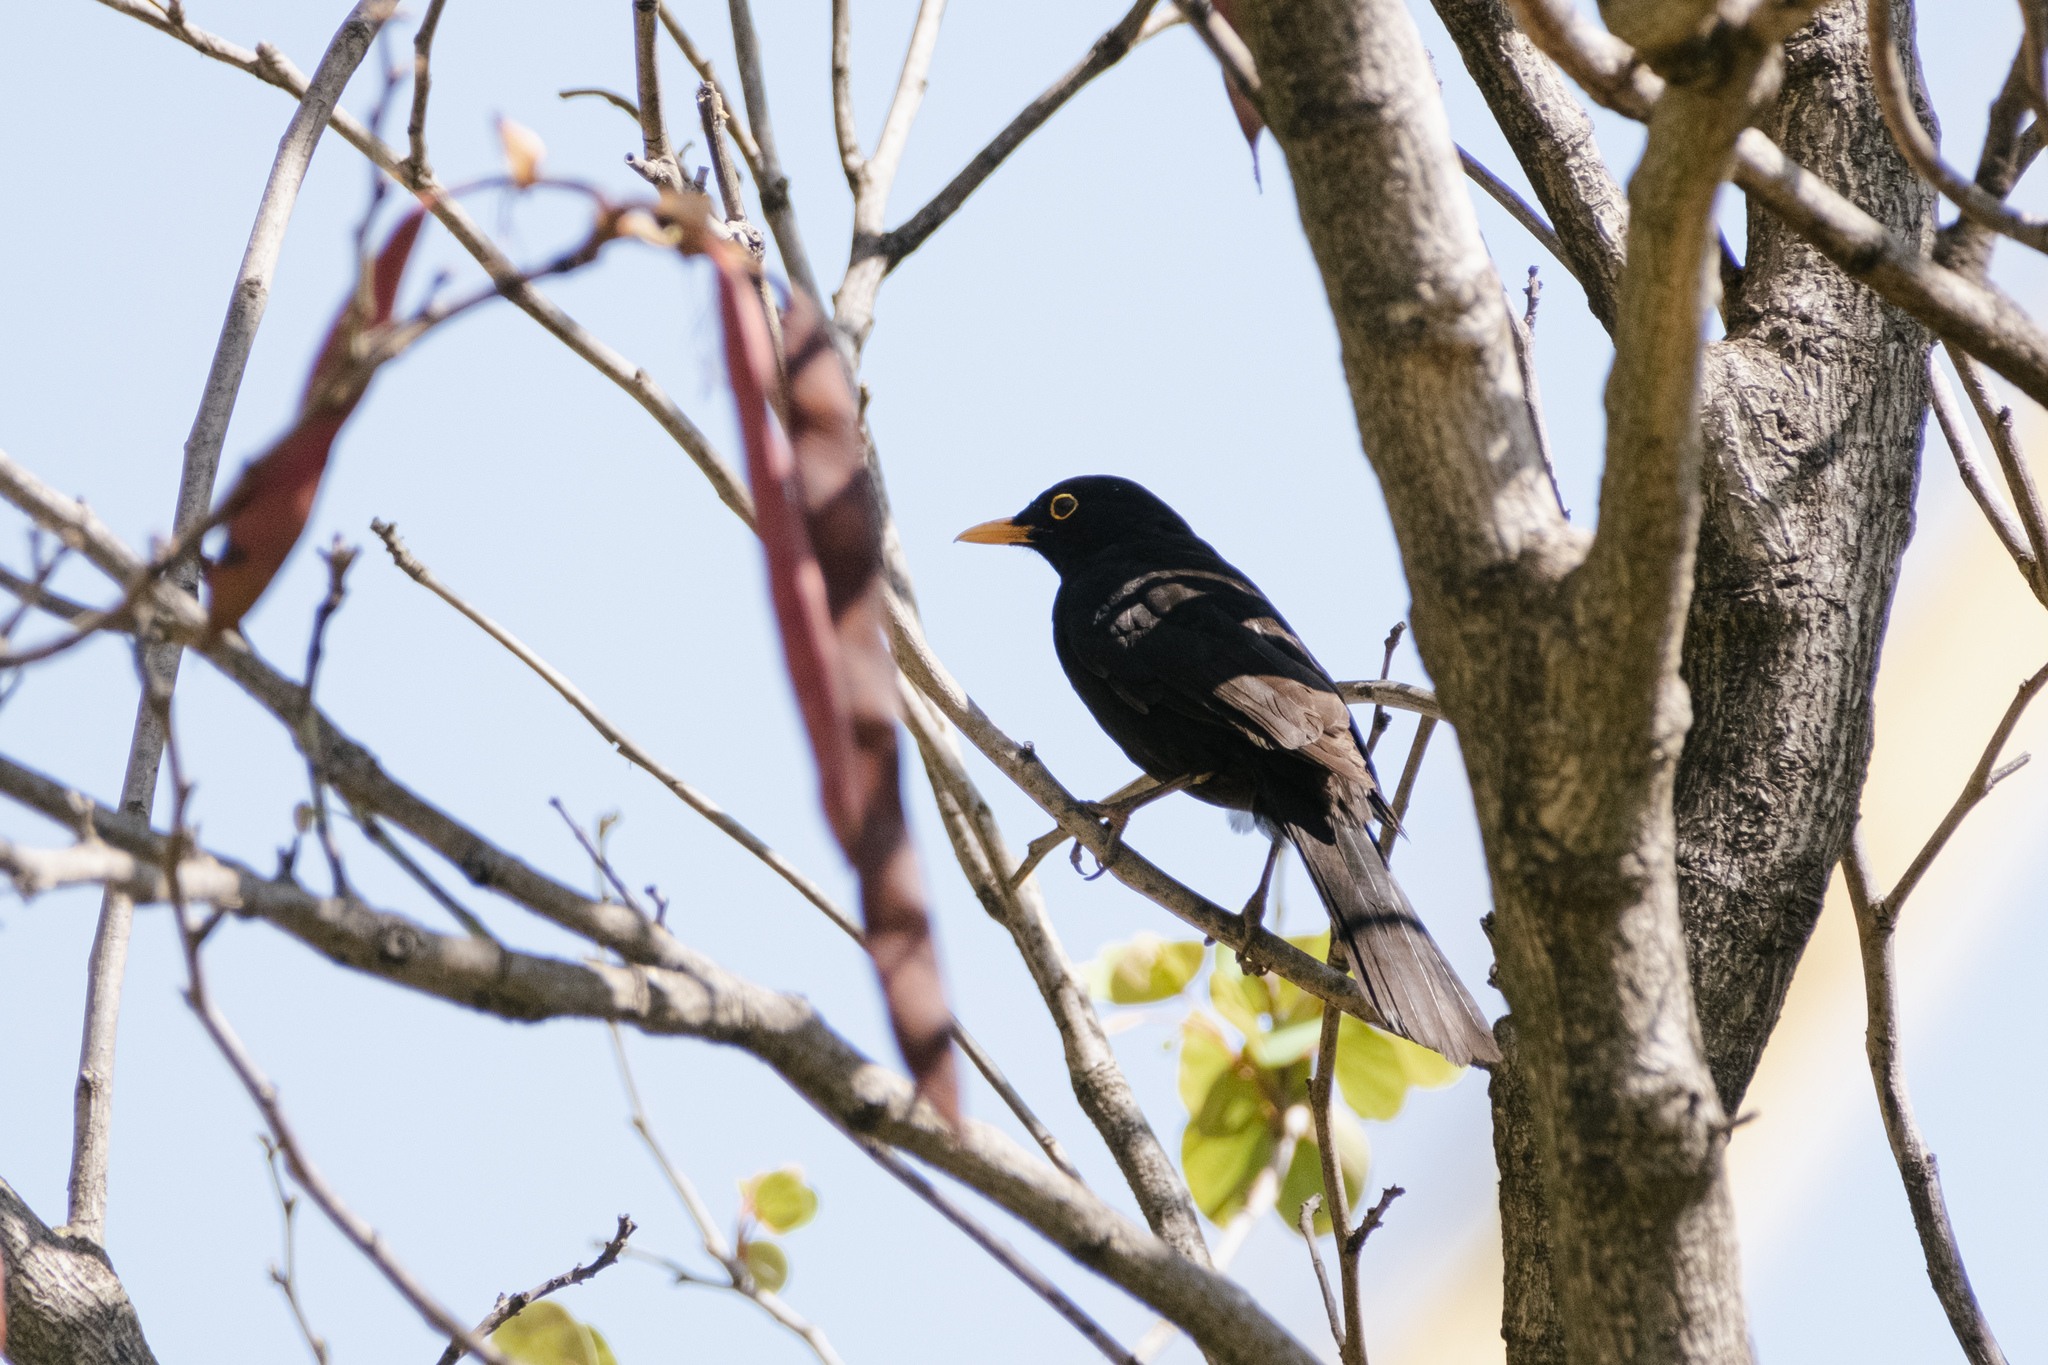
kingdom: Animalia
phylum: Chordata
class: Aves
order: Passeriformes
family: Turdidae
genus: Turdus
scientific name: Turdus merula
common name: Common blackbird
